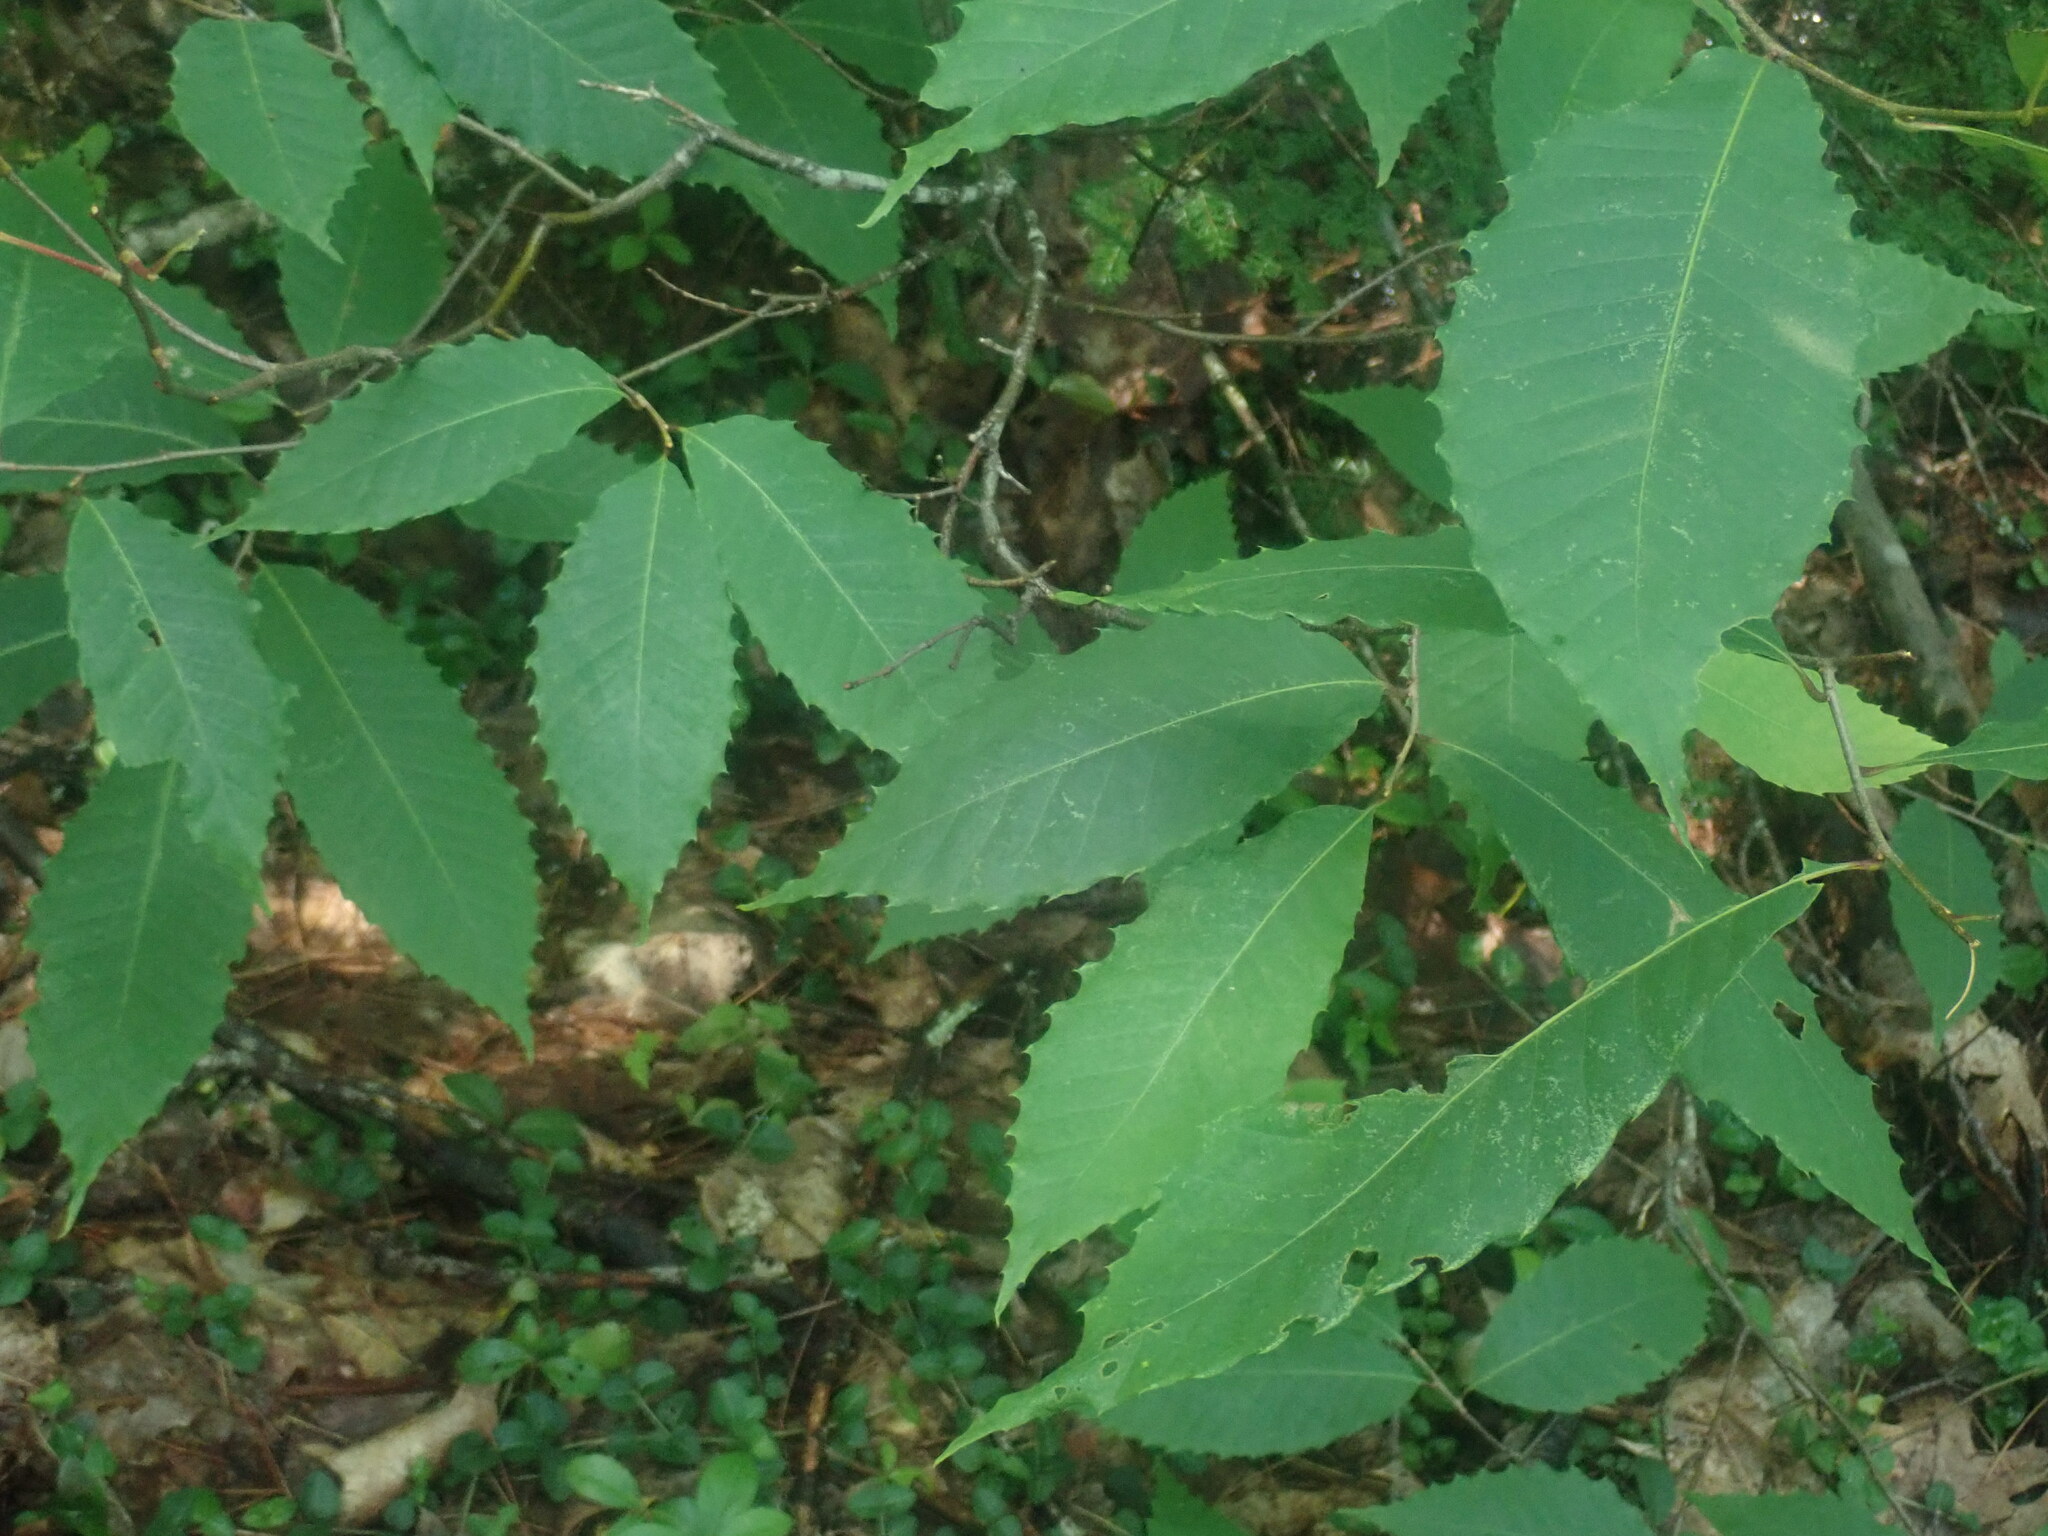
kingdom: Plantae
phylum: Tracheophyta
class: Magnoliopsida
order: Fagales
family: Fagaceae
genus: Castanea
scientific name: Castanea dentata
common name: American chestnut
